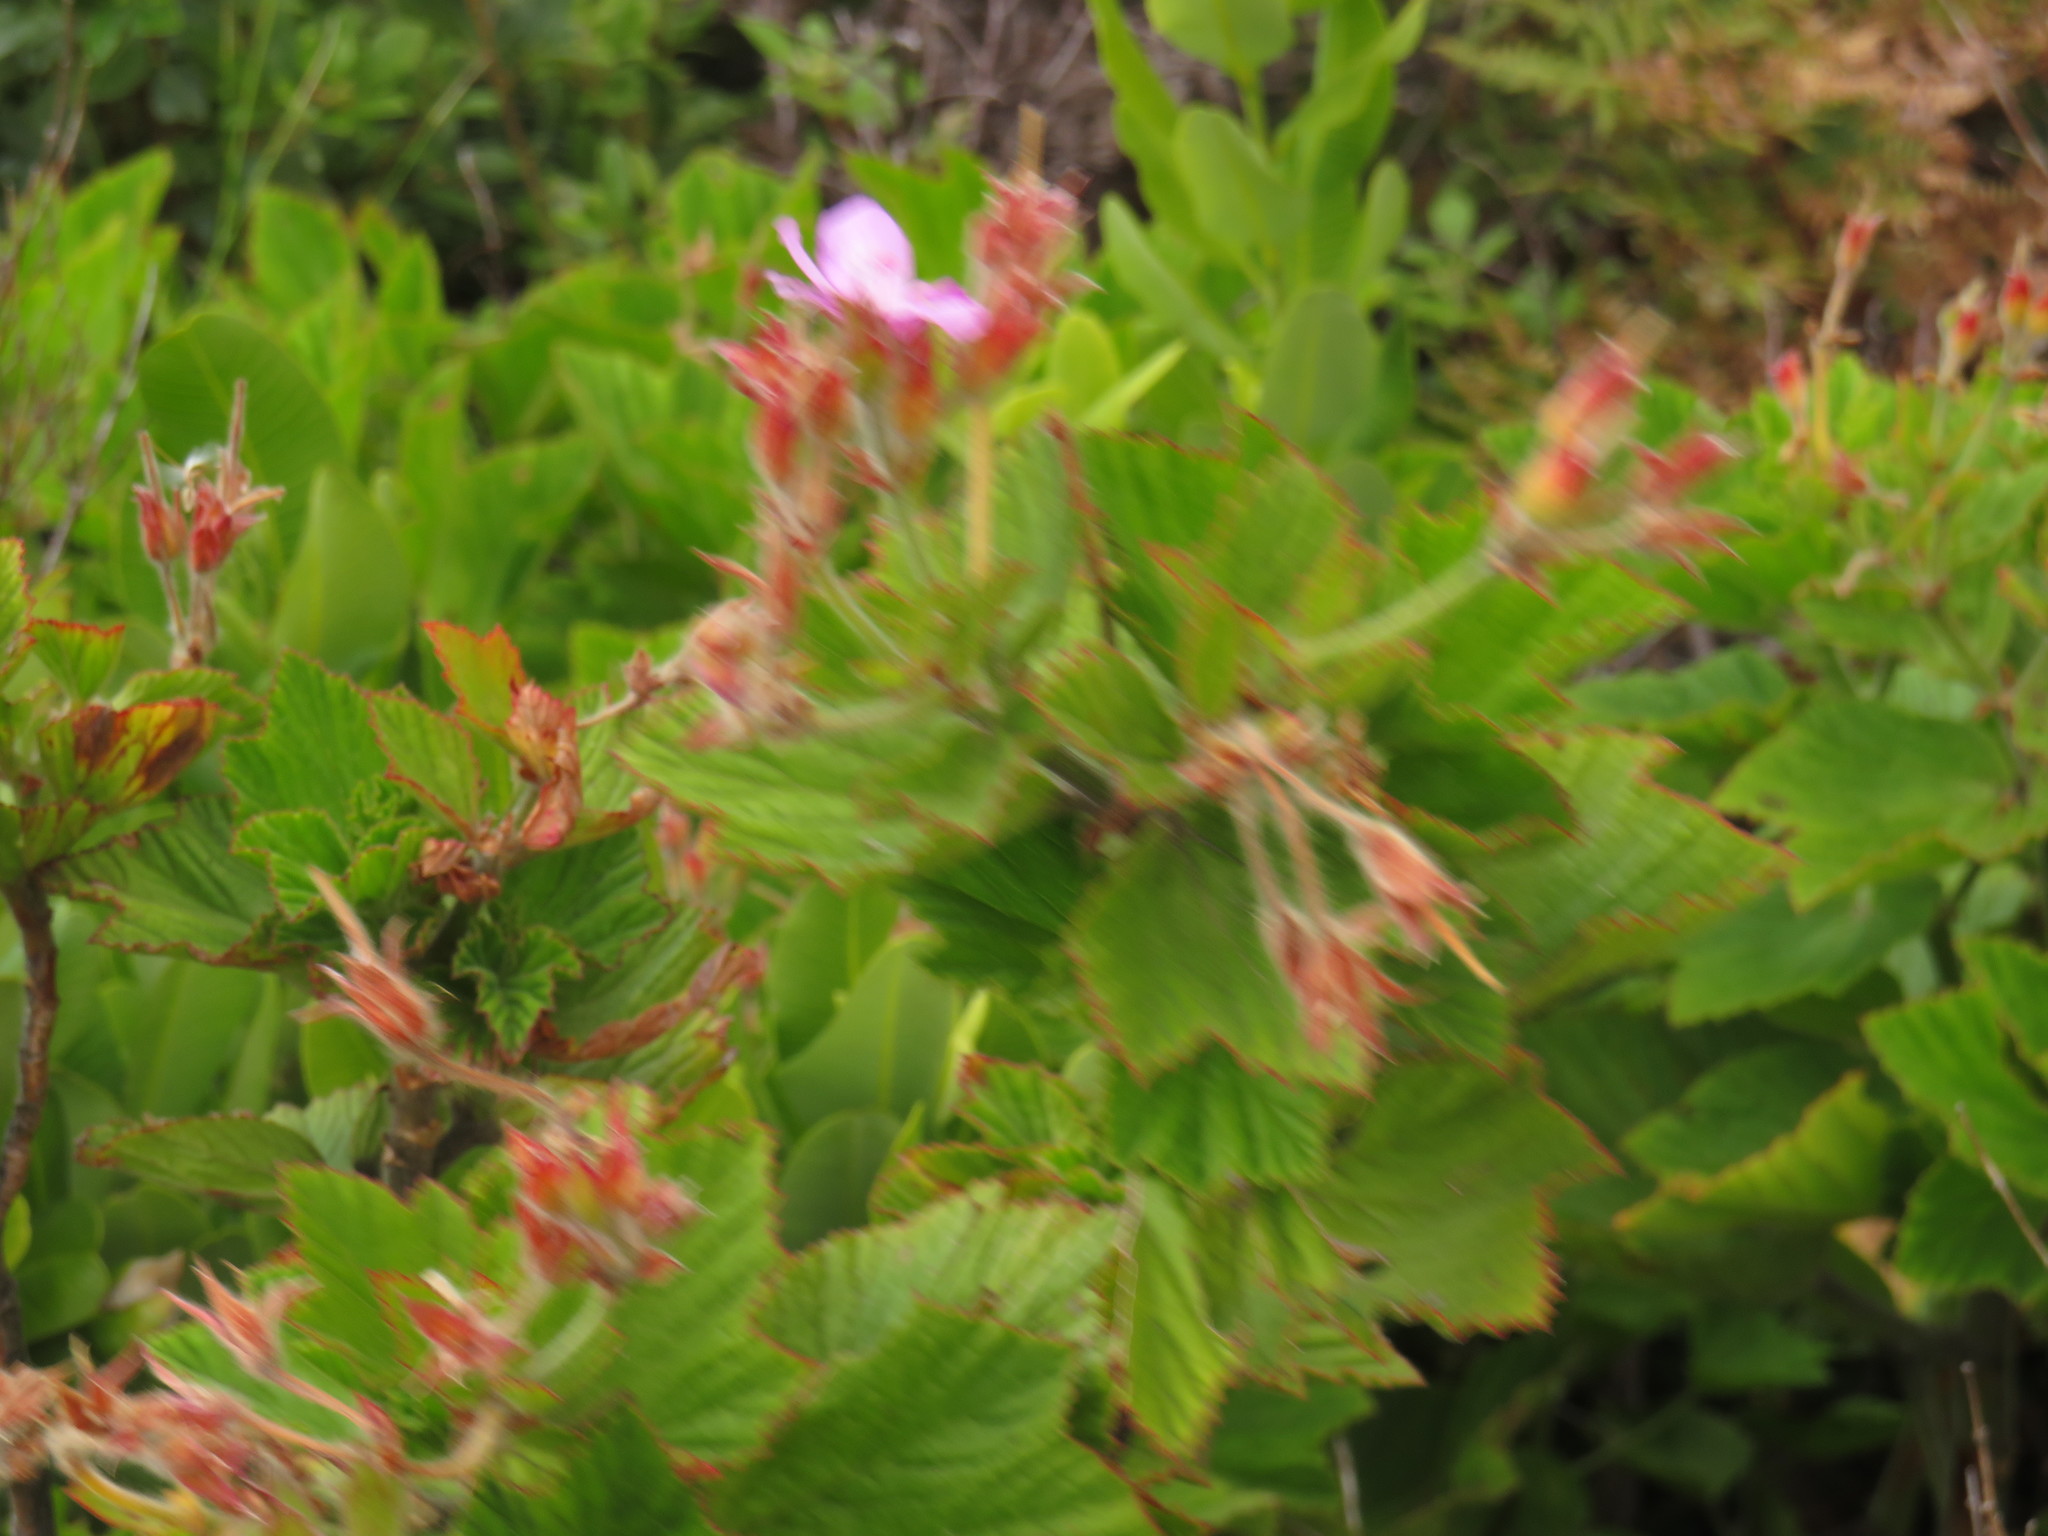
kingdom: Plantae
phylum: Tracheophyta
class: Magnoliopsida
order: Geraniales
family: Geraniaceae
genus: Pelargonium
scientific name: Pelargonium cucullatum
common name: Tree pelargonium
